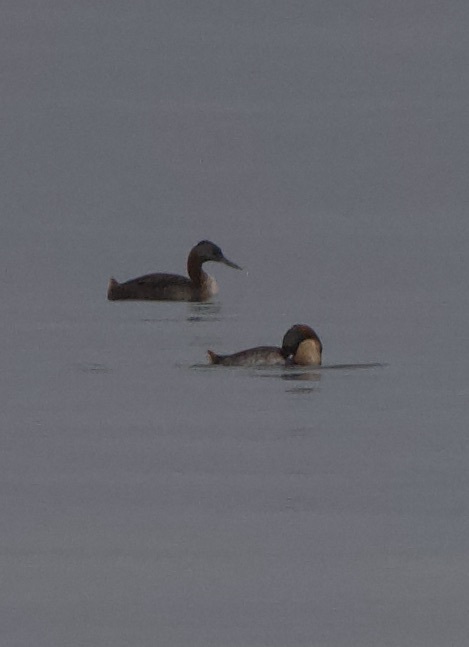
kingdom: Animalia
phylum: Chordata
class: Aves
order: Podicipediformes
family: Podicipedidae
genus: Podiceps
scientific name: Podiceps major
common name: Great grebe
